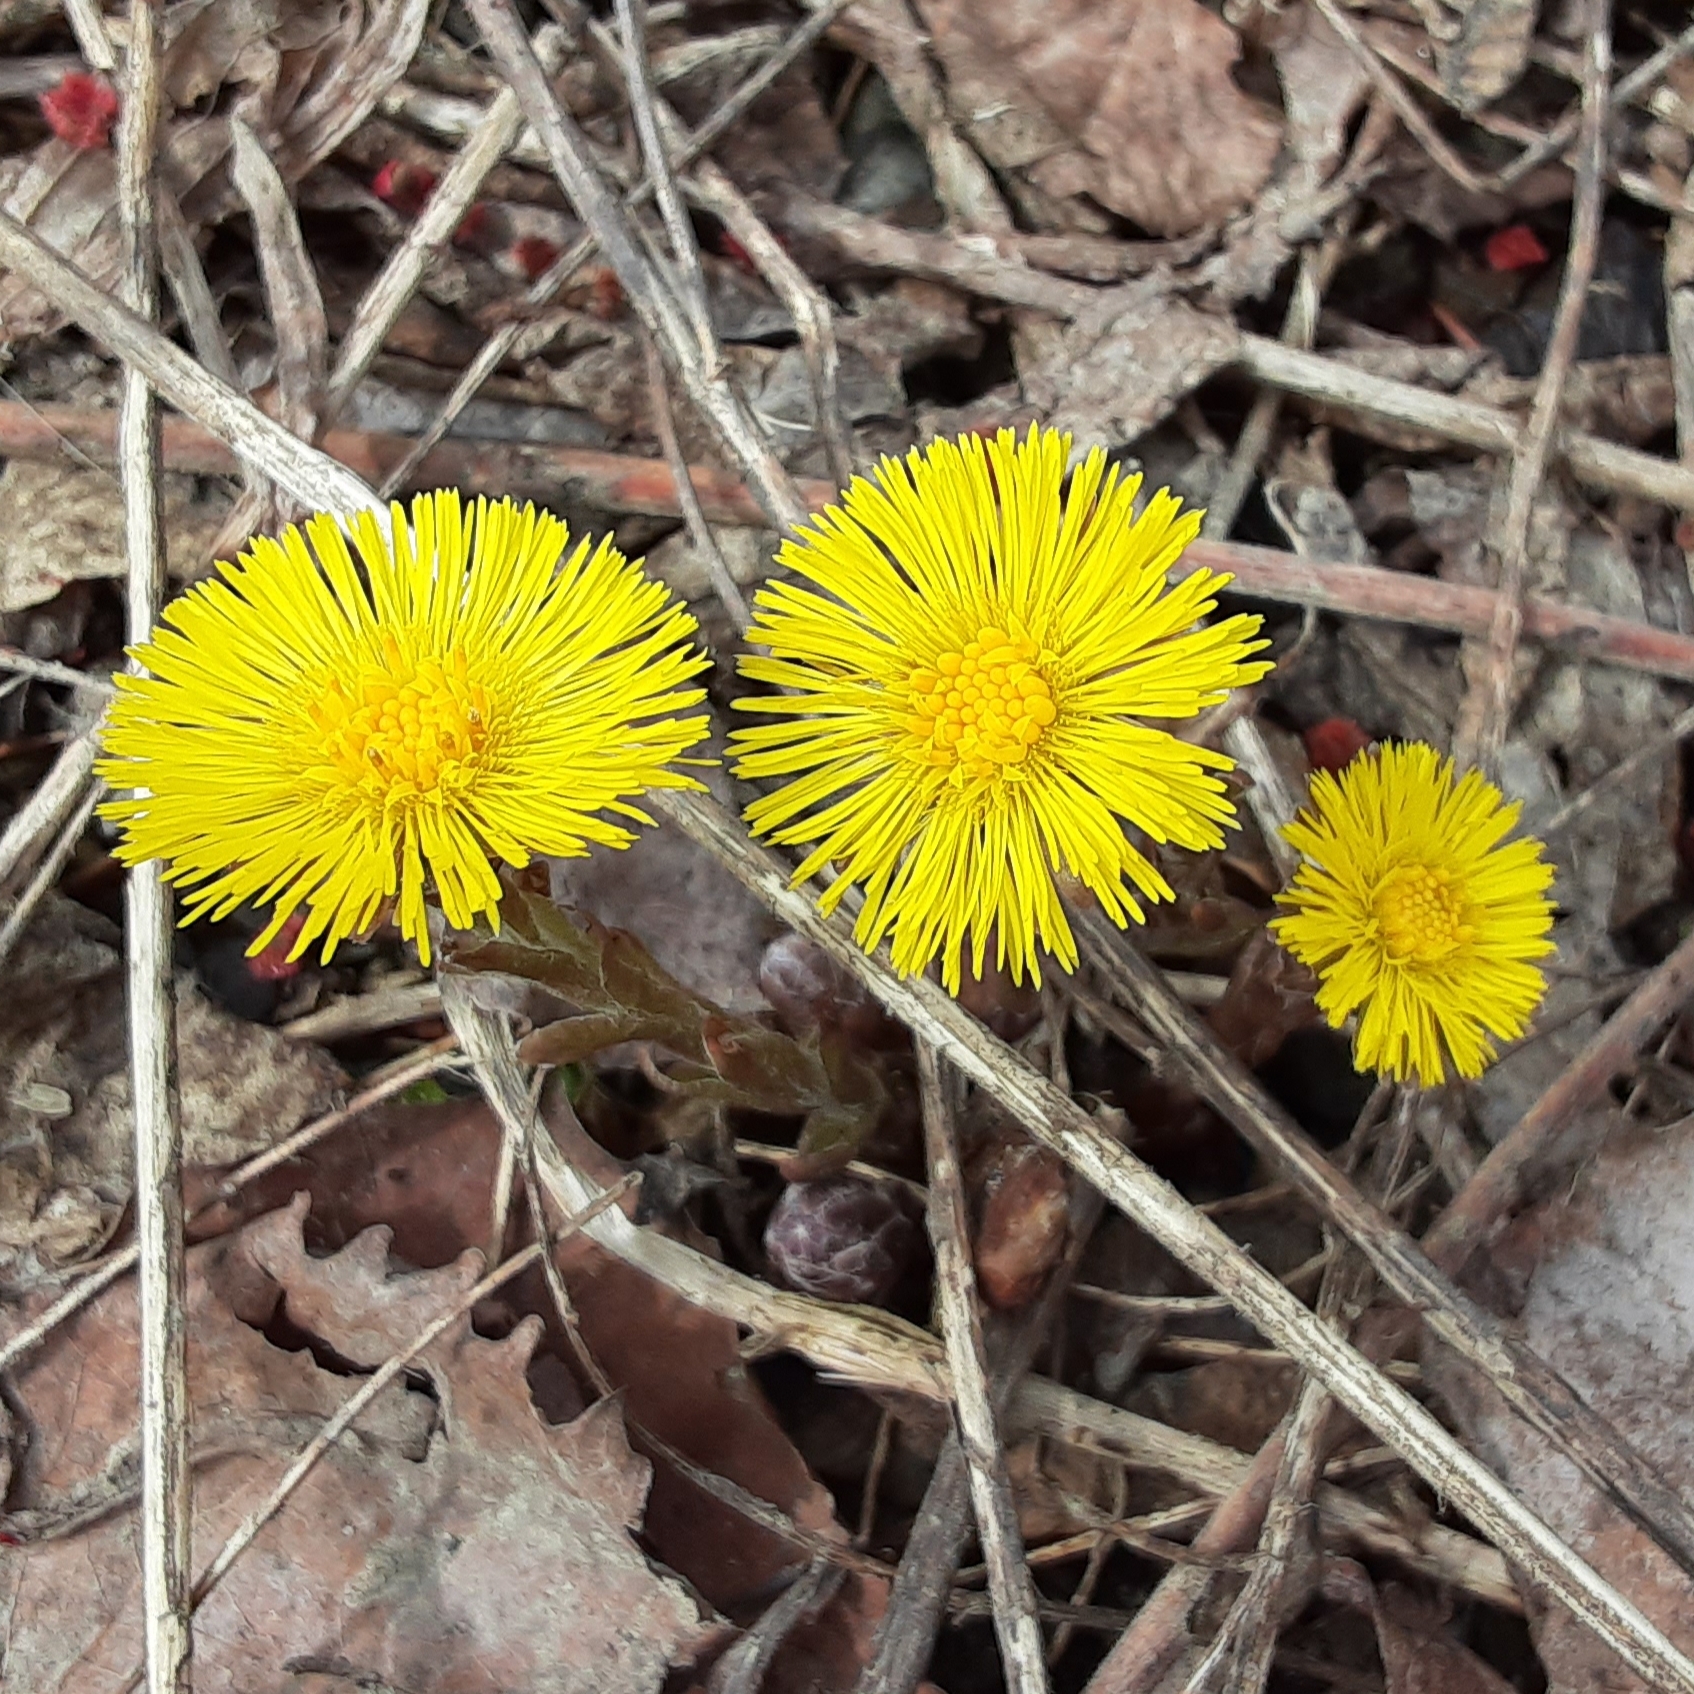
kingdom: Plantae
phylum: Tracheophyta
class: Magnoliopsida
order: Asterales
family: Asteraceae
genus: Tussilago
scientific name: Tussilago farfara
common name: Coltsfoot
